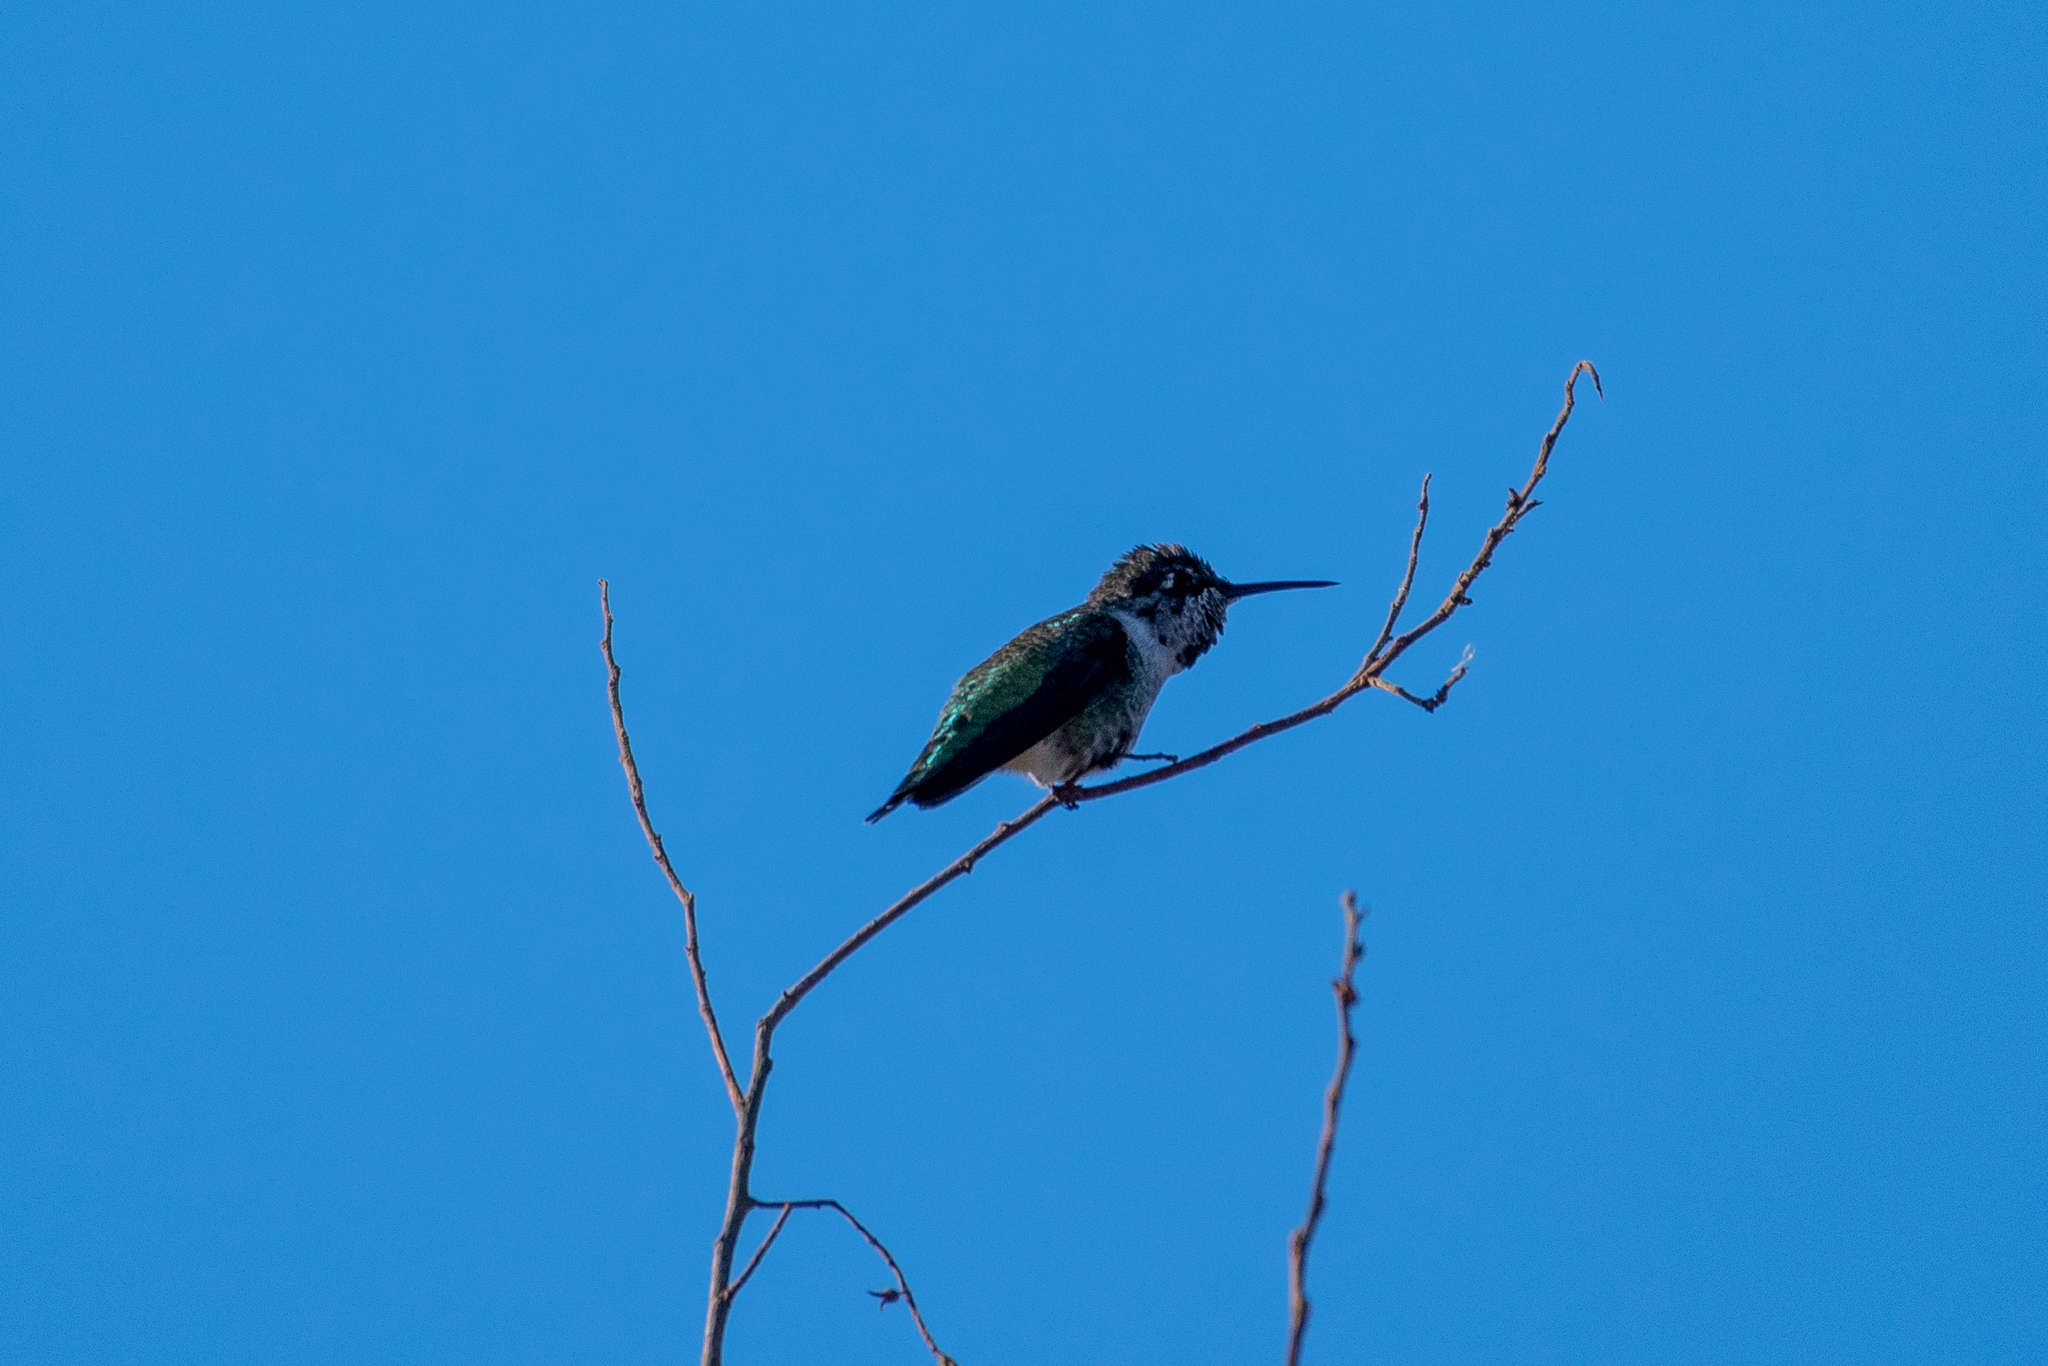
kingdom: Animalia
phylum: Chordata
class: Aves
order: Apodiformes
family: Trochilidae
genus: Calypte
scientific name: Calypte anna
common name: Anna's hummingbird
